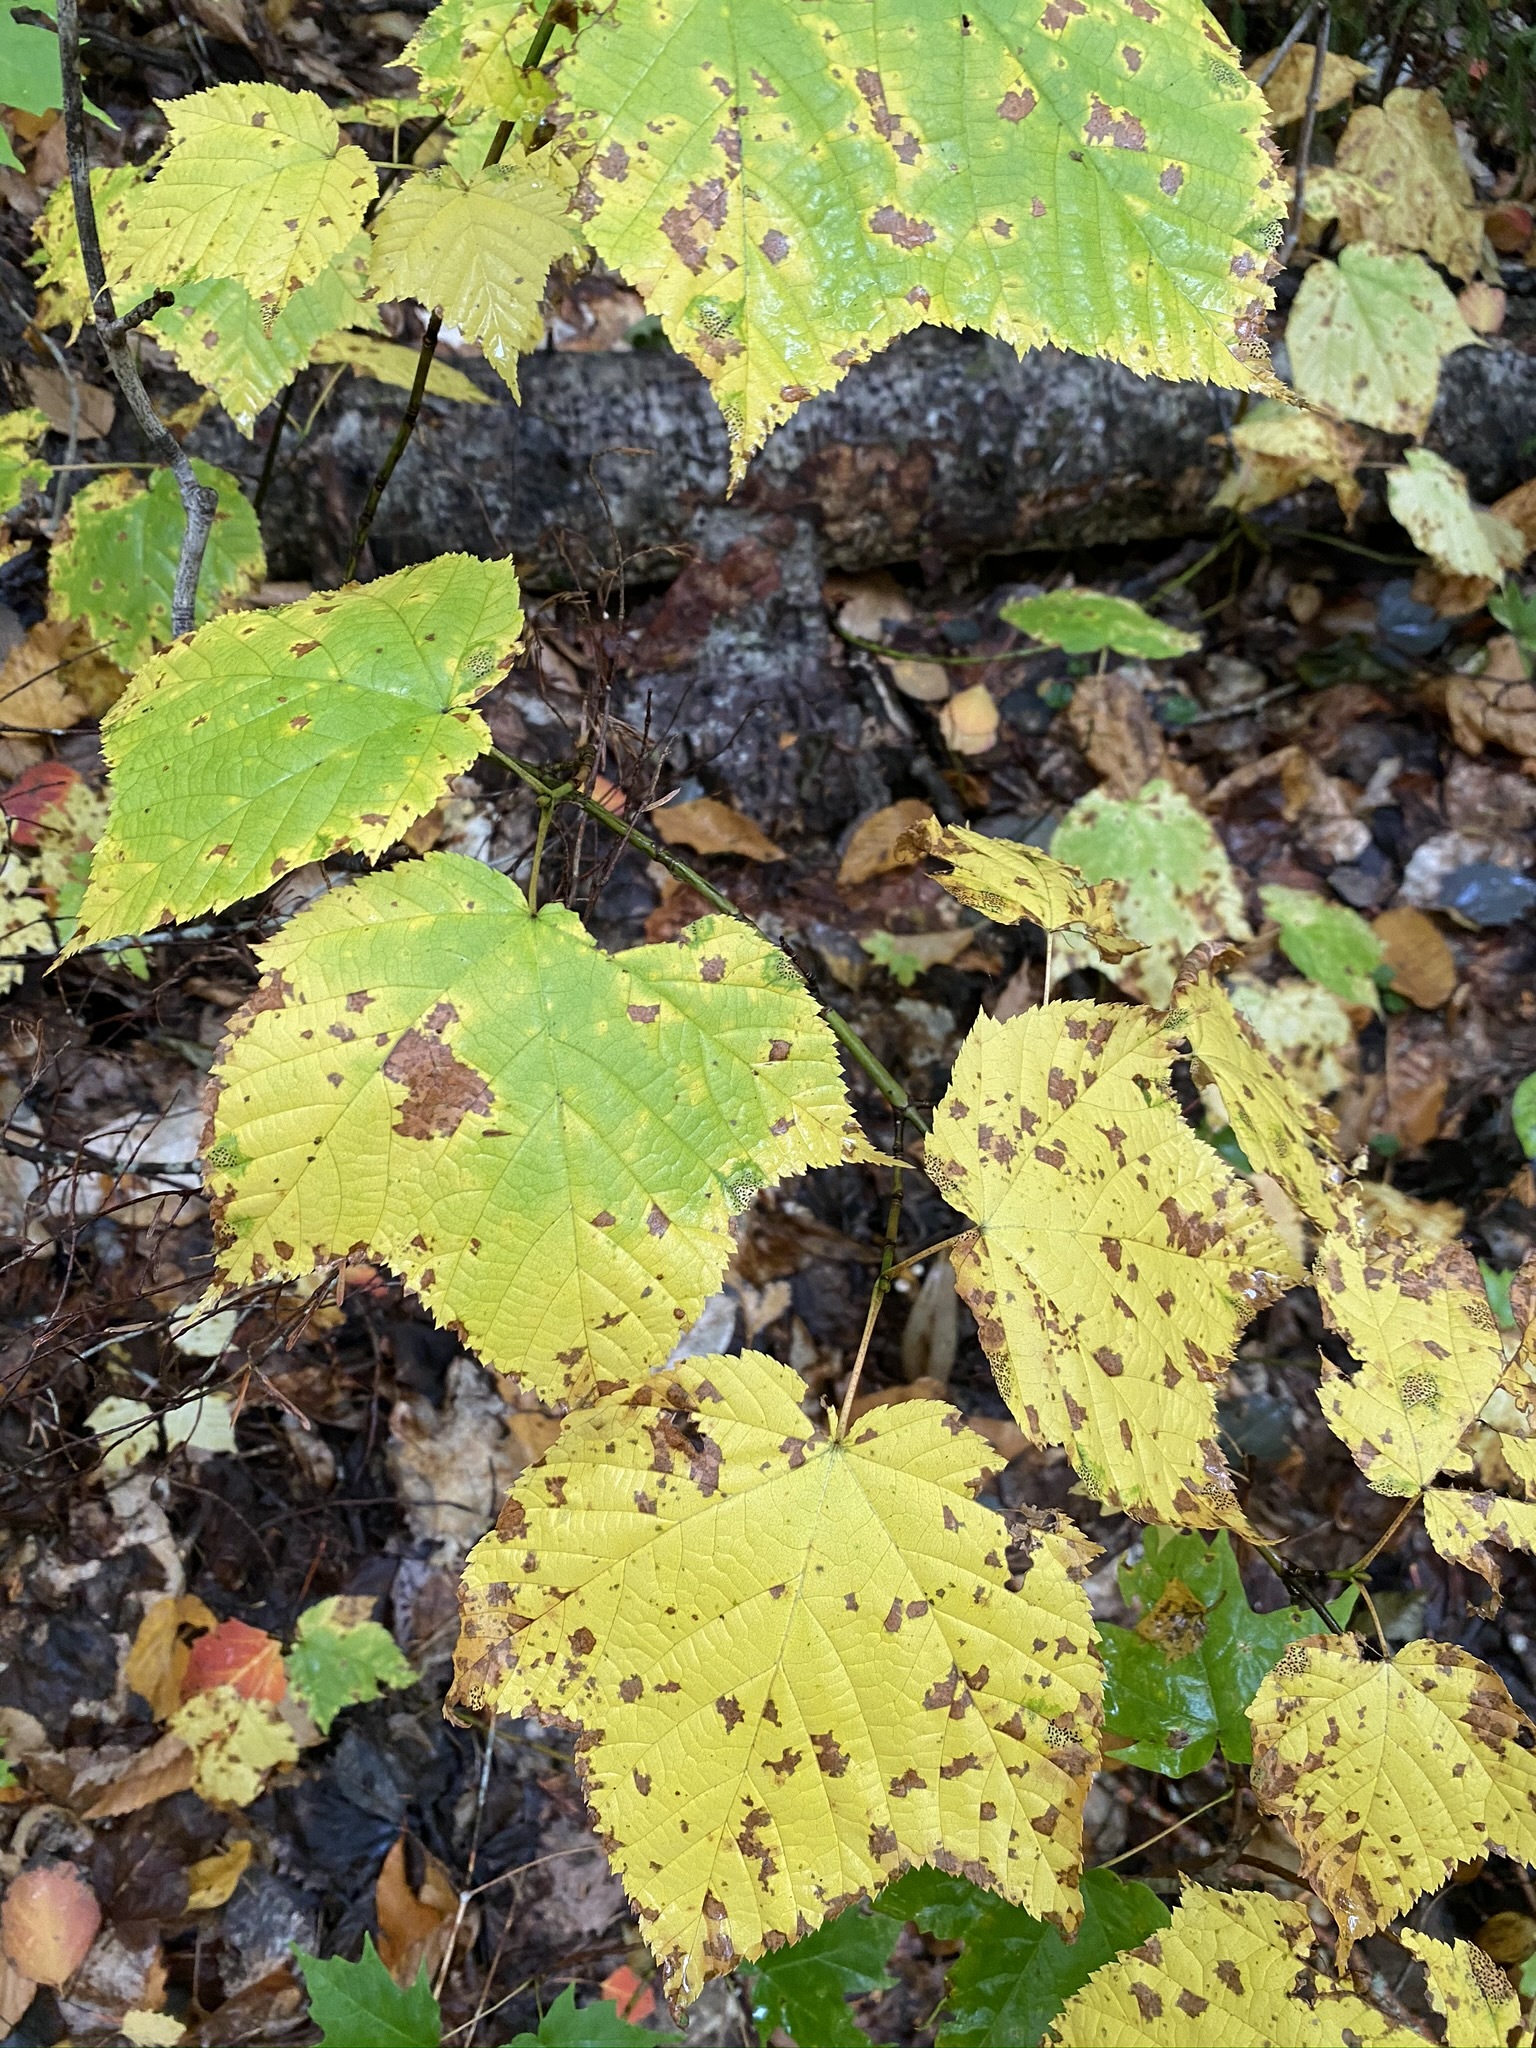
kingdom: Plantae
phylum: Tracheophyta
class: Magnoliopsida
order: Sapindales
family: Sapindaceae
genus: Acer
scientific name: Acer pensylvanicum
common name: Moosewood
